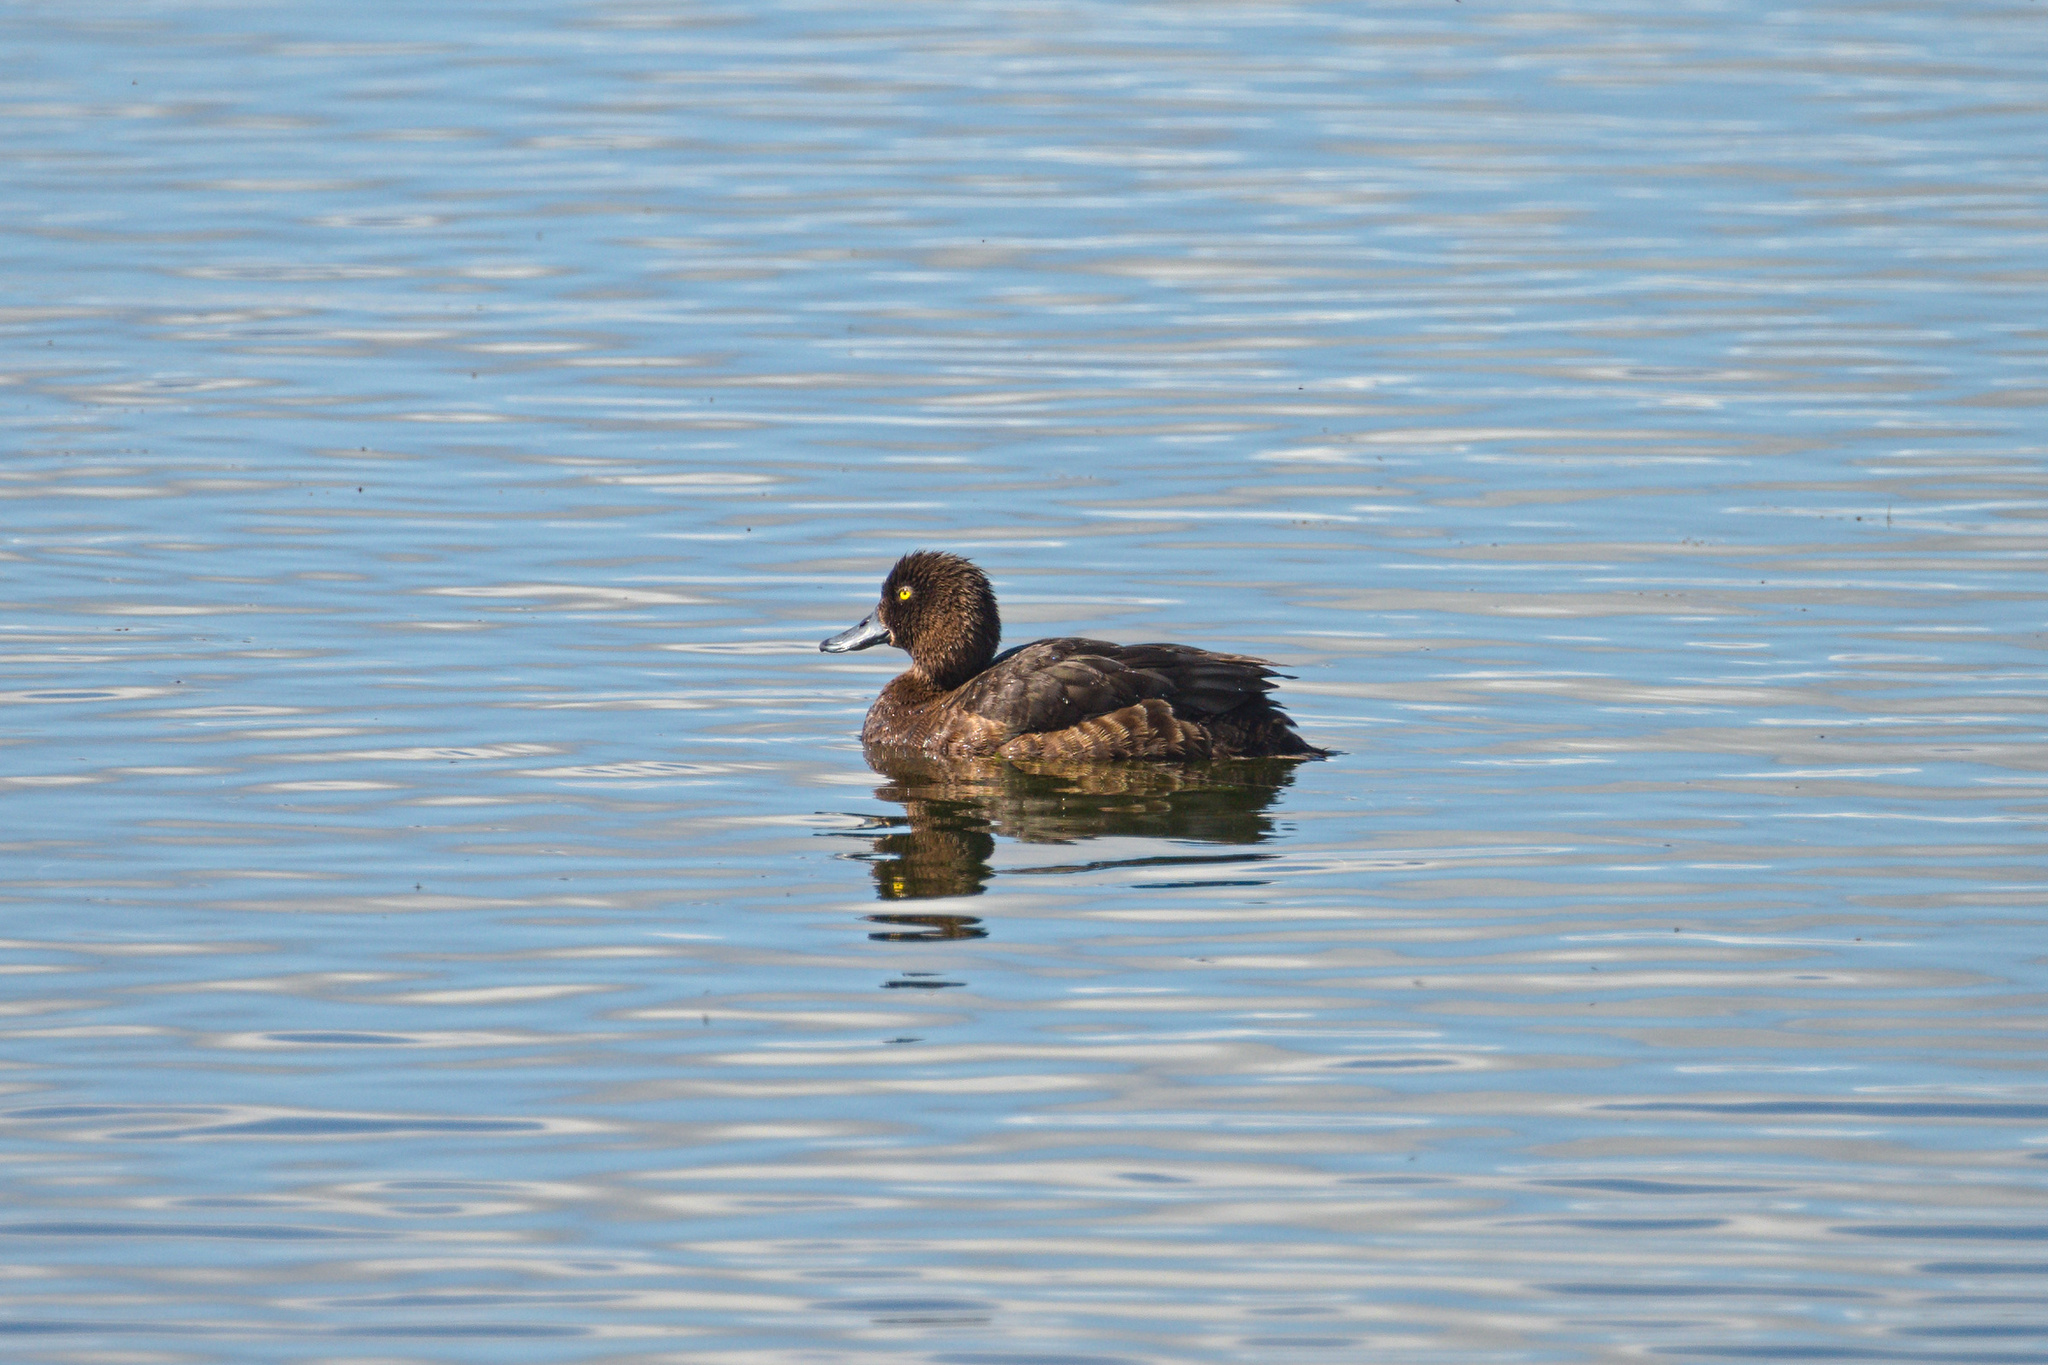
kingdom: Animalia
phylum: Chordata
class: Aves
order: Anseriformes
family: Anatidae
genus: Aythya
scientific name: Aythya fuligula
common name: Tufted duck
